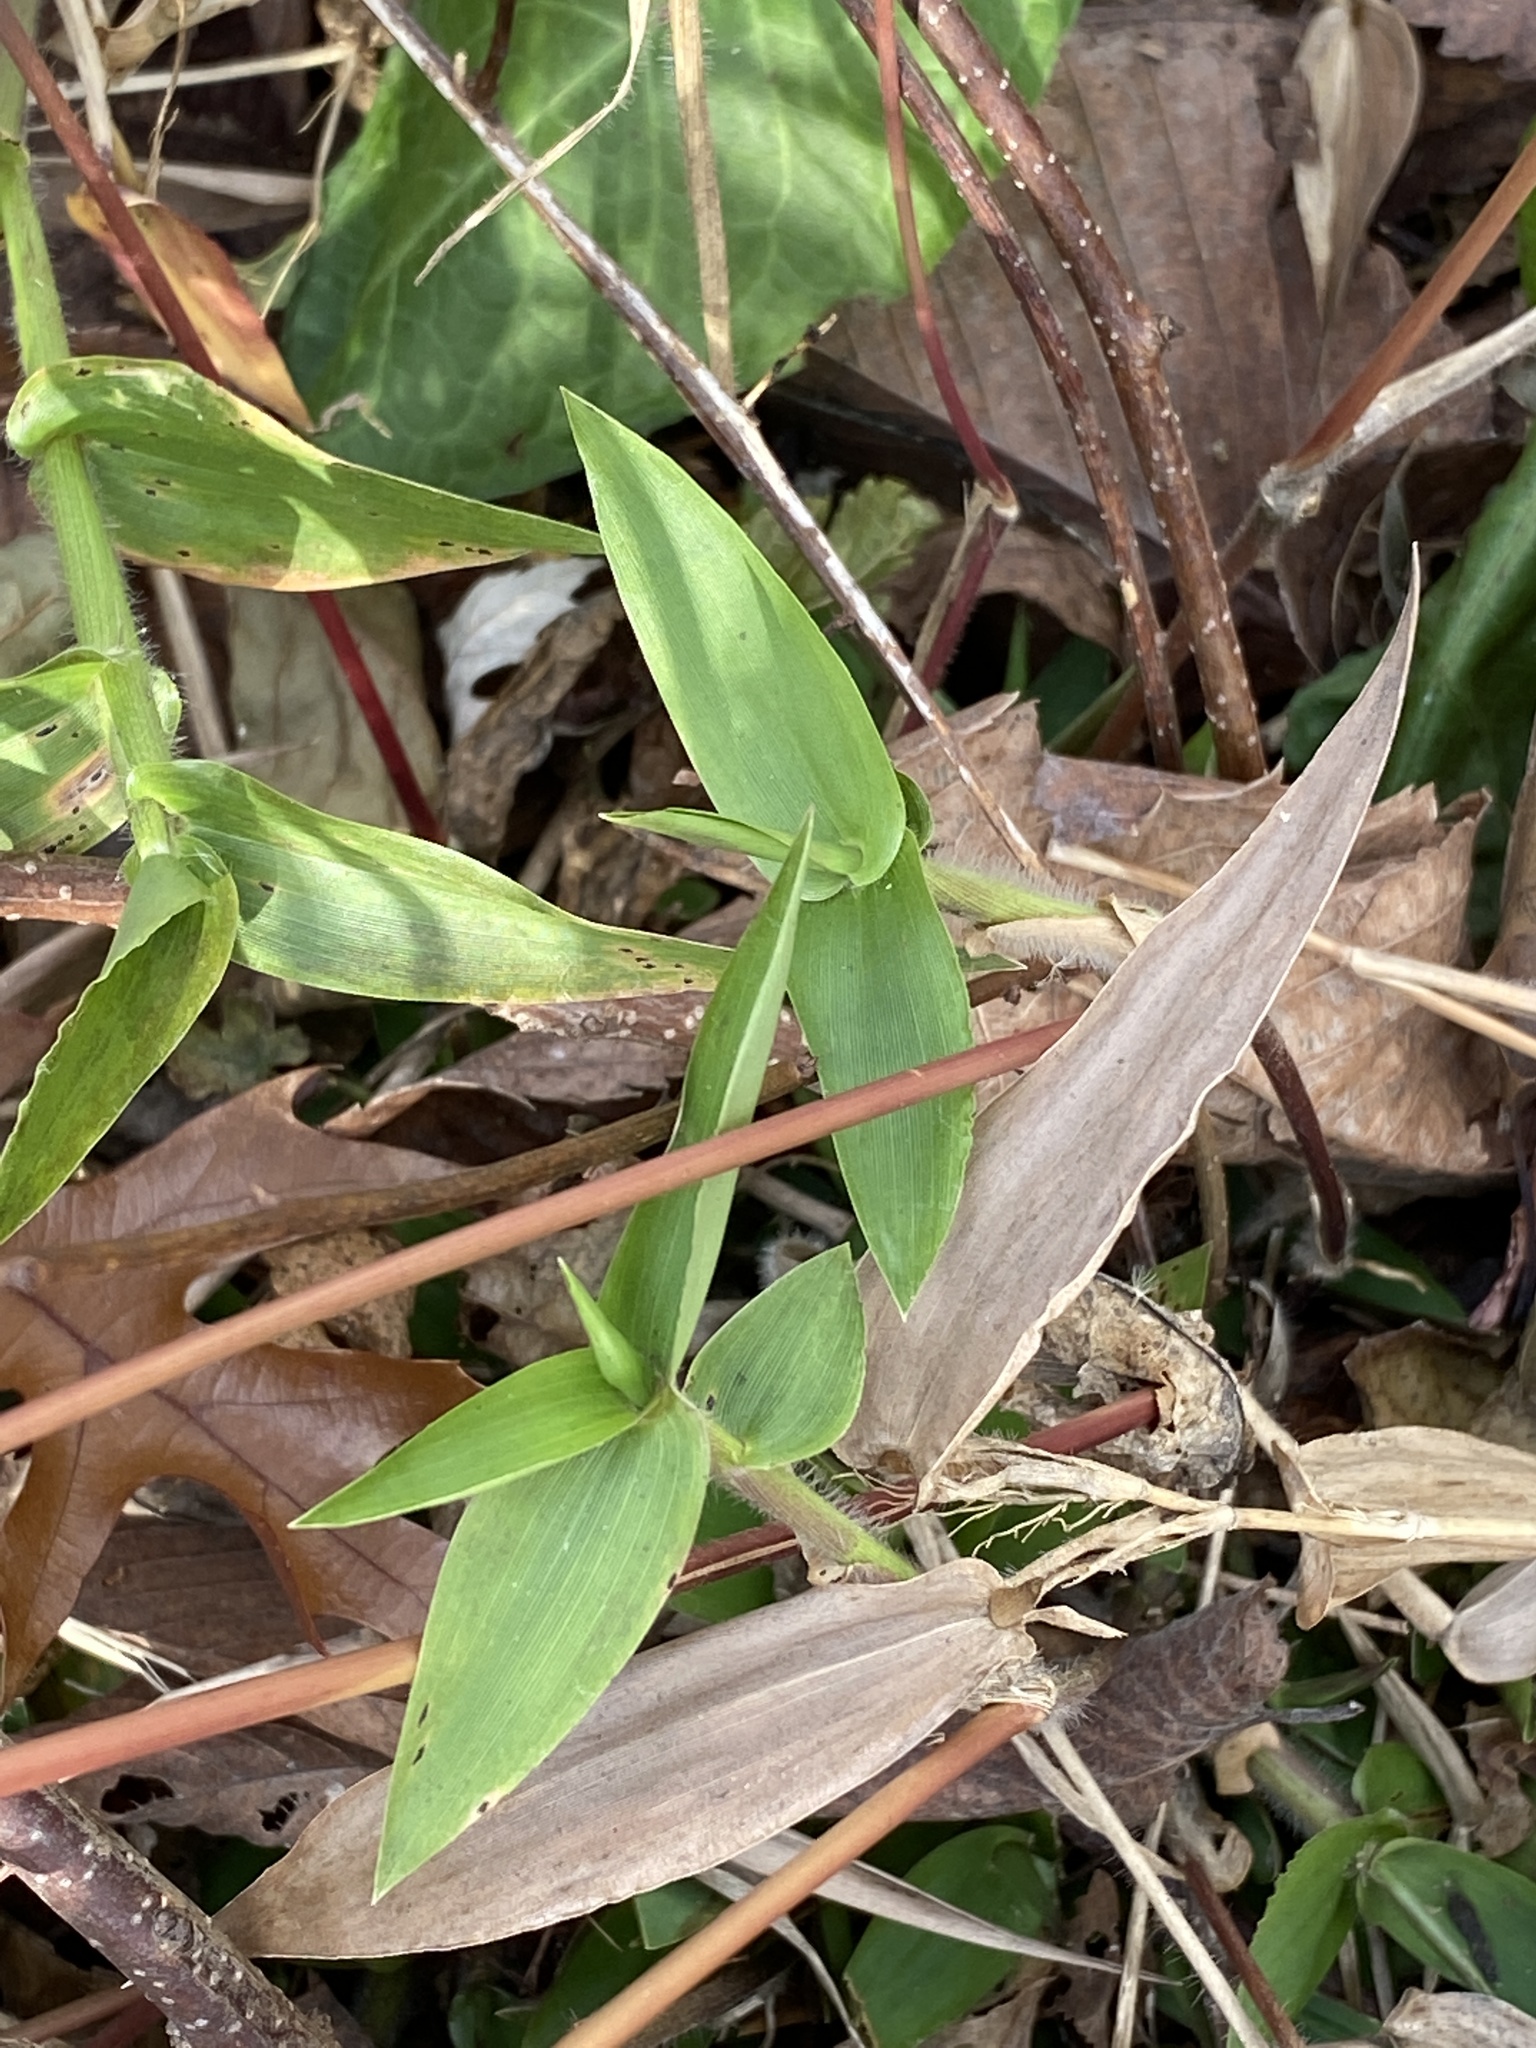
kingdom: Plantae
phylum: Tracheophyta
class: Liliopsida
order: Poales
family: Poaceae
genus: Dichanthelium
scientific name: Dichanthelium clandestinum
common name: Deer-tongue grass
